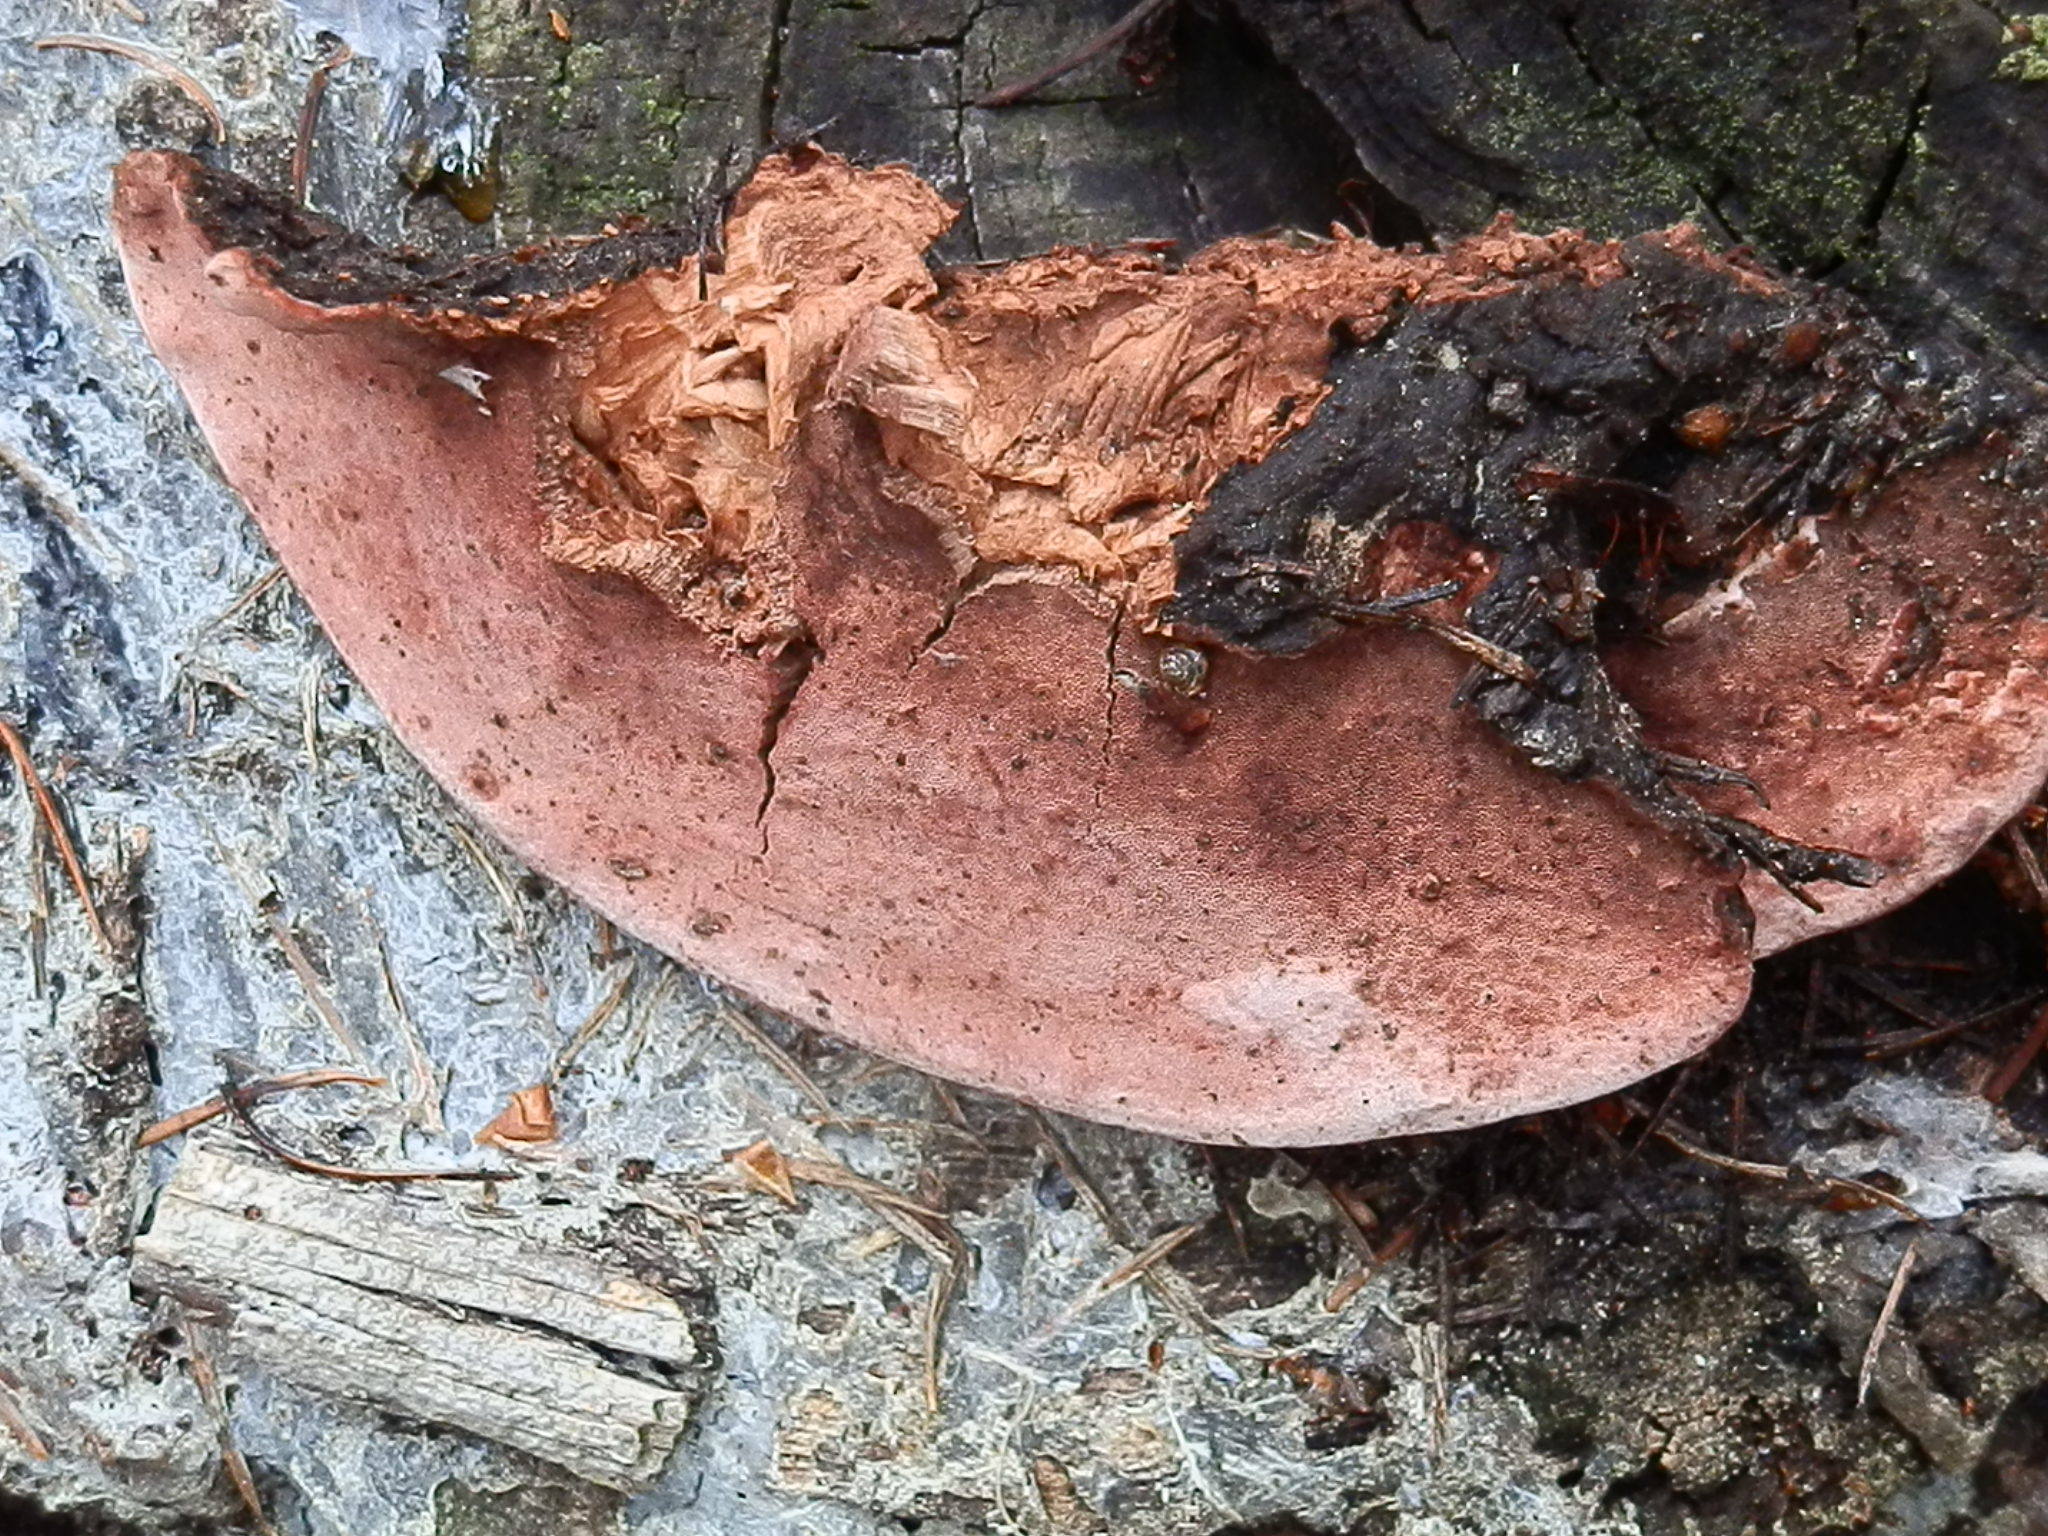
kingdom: Fungi
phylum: Basidiomycota
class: Agaricomycetes
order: Polyporales
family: Fomitopsidaceae
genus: Rhodofomes
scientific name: Rhodofomes cajanderi
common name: Rosy conk
